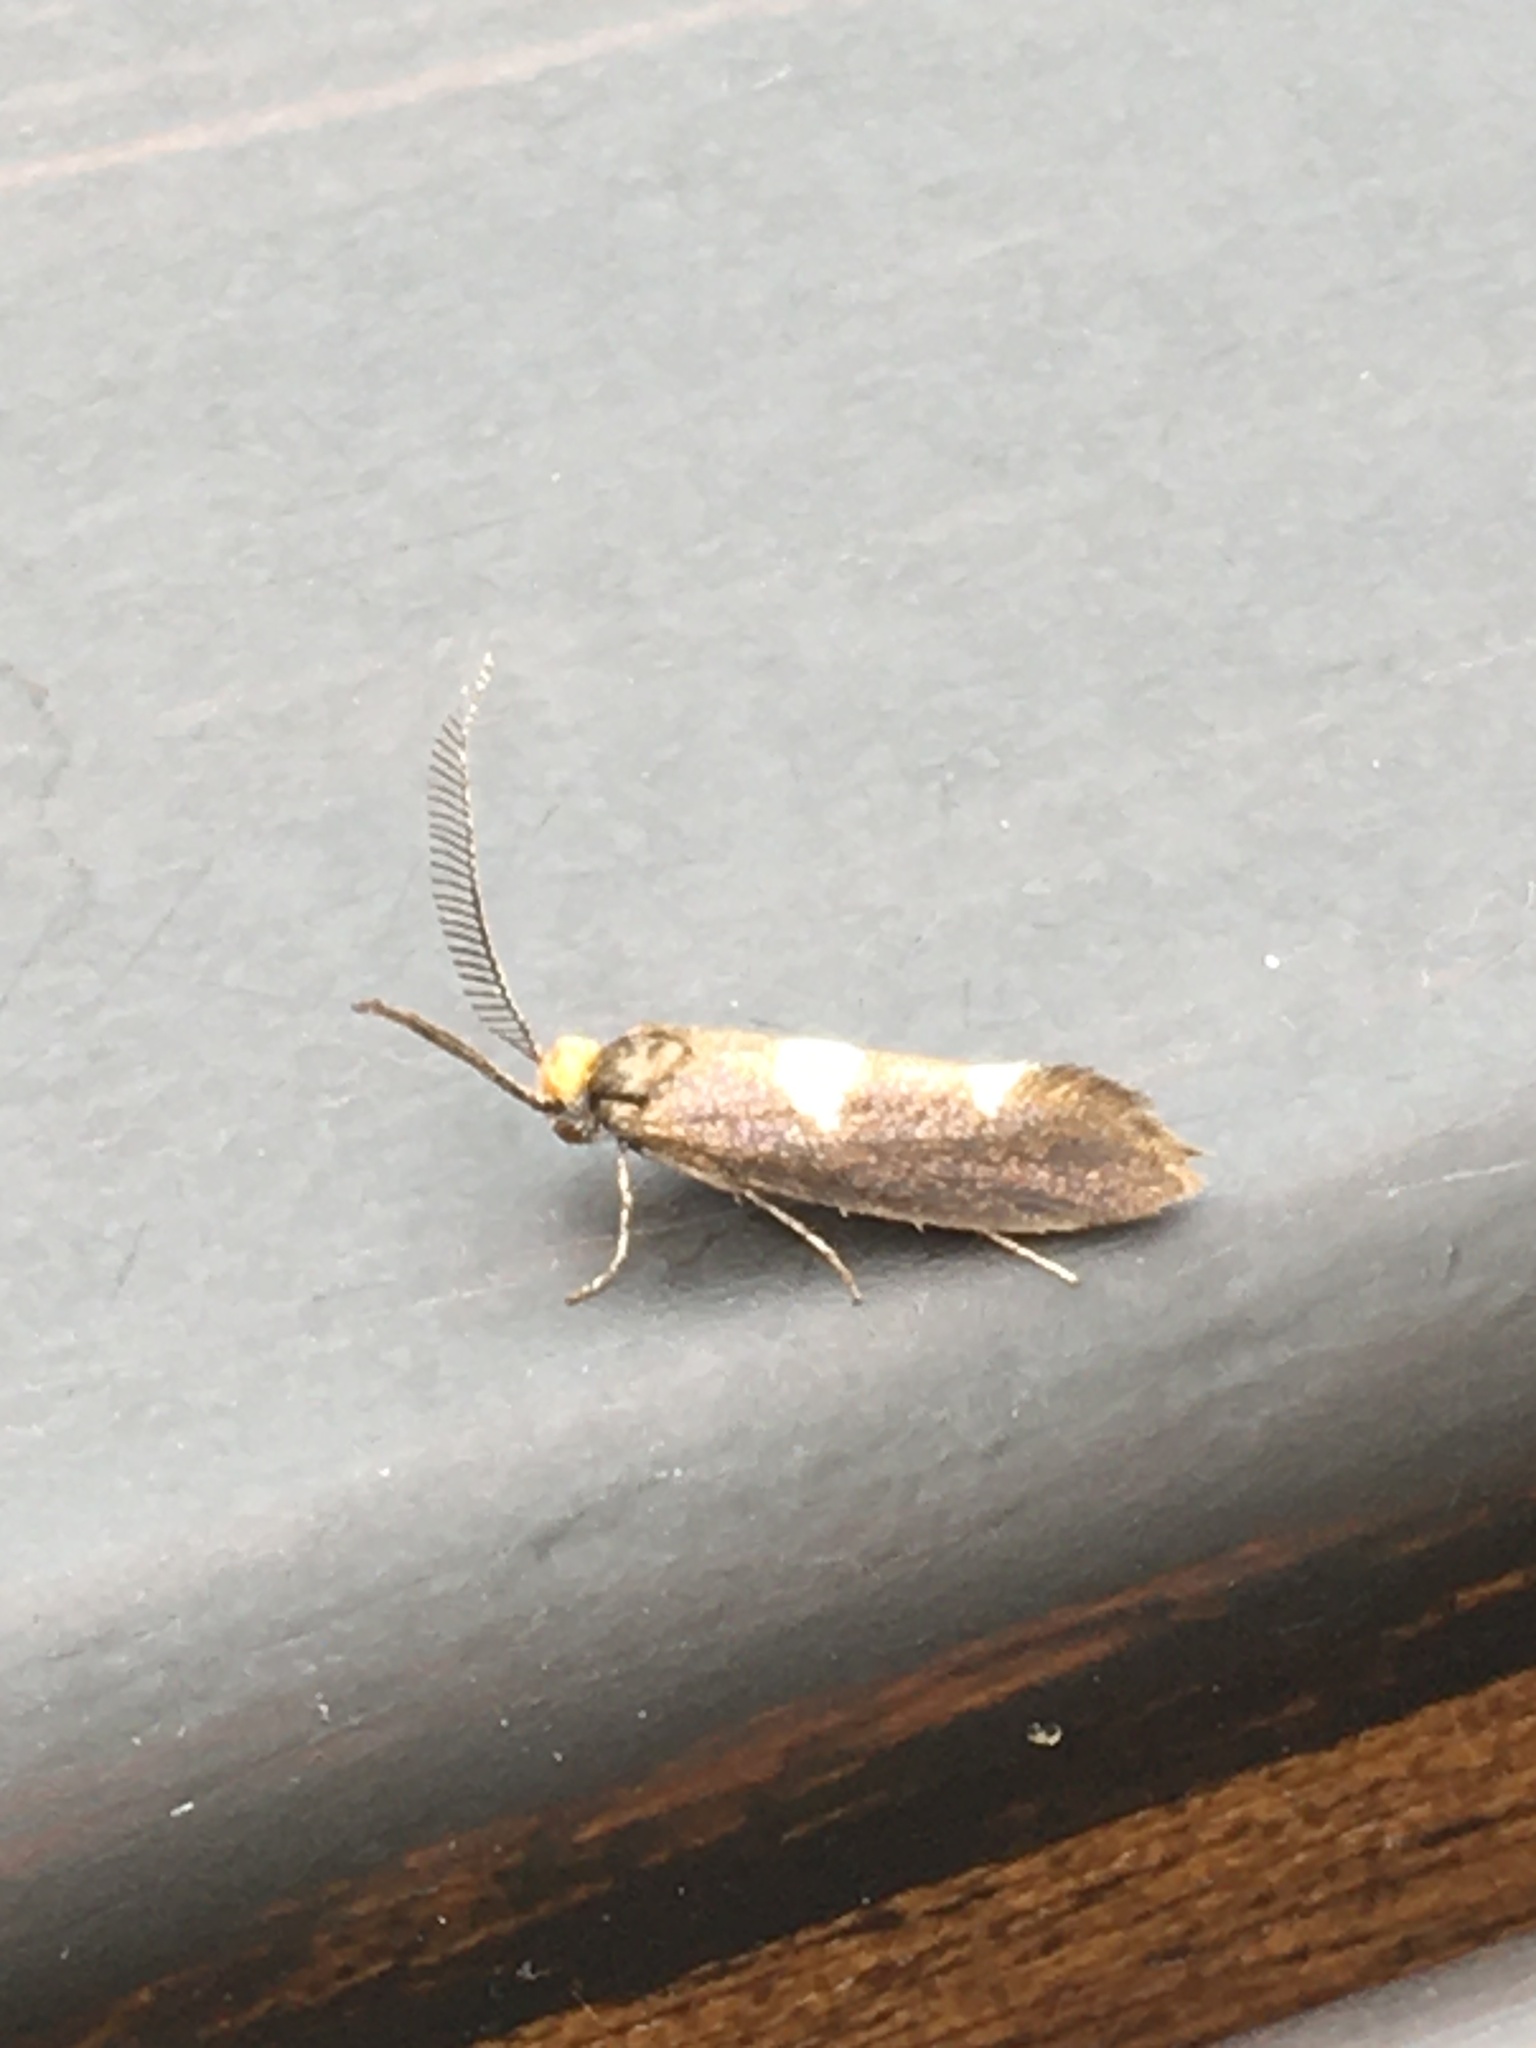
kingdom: Animalia
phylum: Arthropoda
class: Insecta
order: Lepidoptera
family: Incurvariidae
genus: Incurvaria
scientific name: Incurvaria masculella
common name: Feathered leaf-cutter
